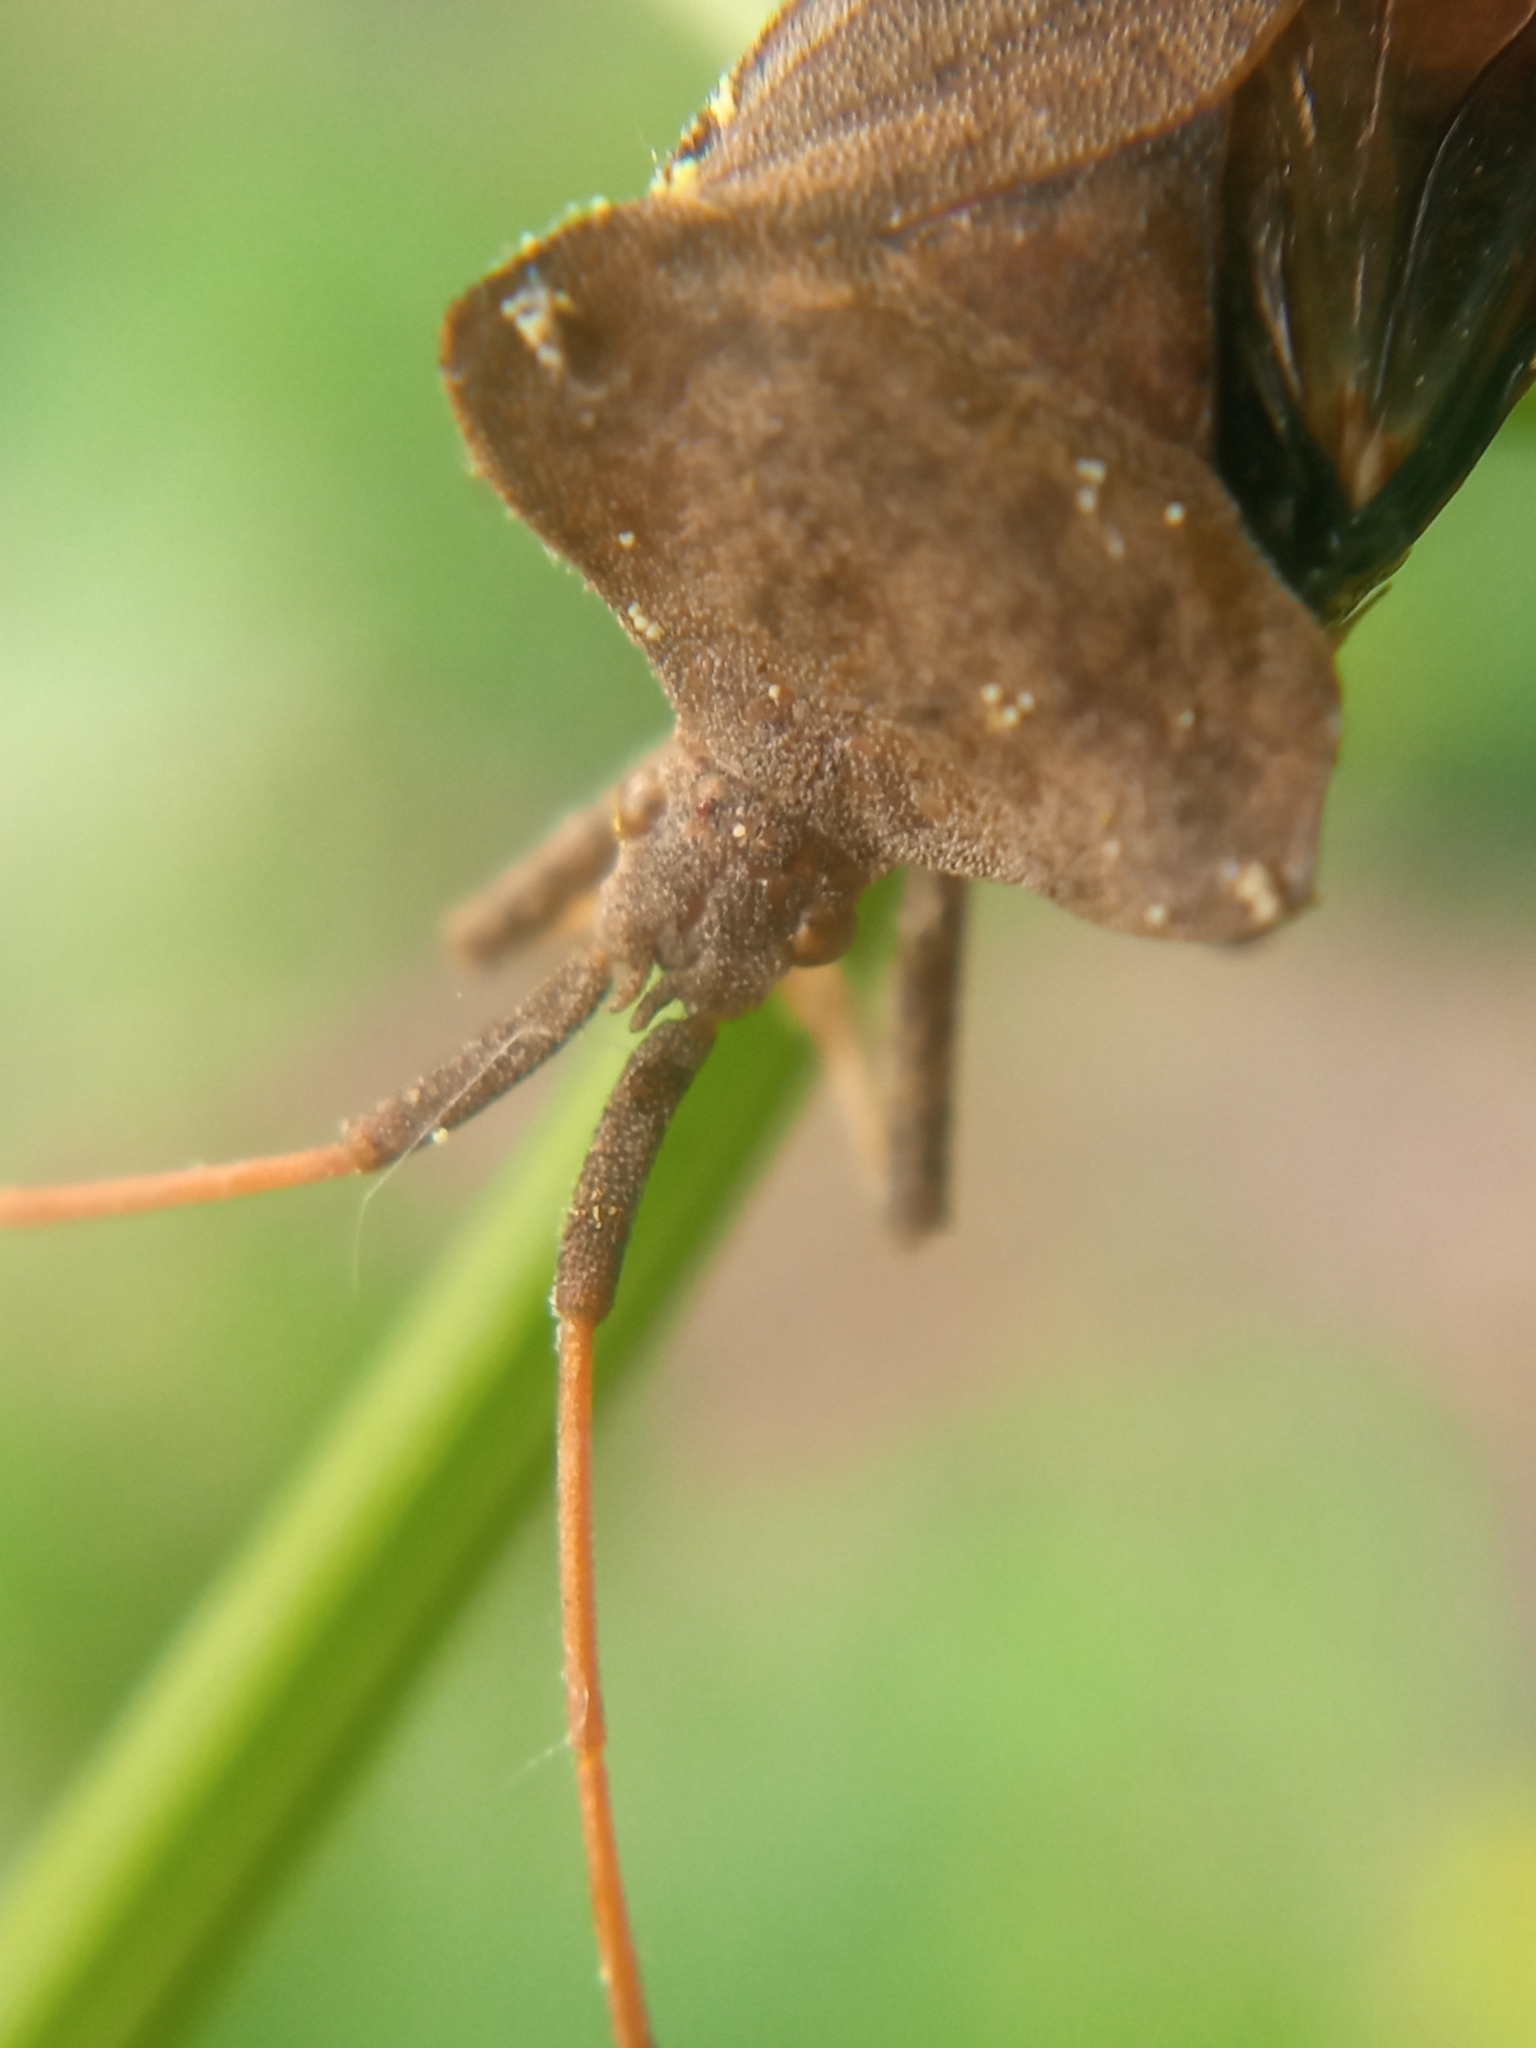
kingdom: Animalia
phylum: Arthropoda
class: Insecta
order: Hemiptera
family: Coreidae
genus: Coreus
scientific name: Coreus marginatus
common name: Dock bug
